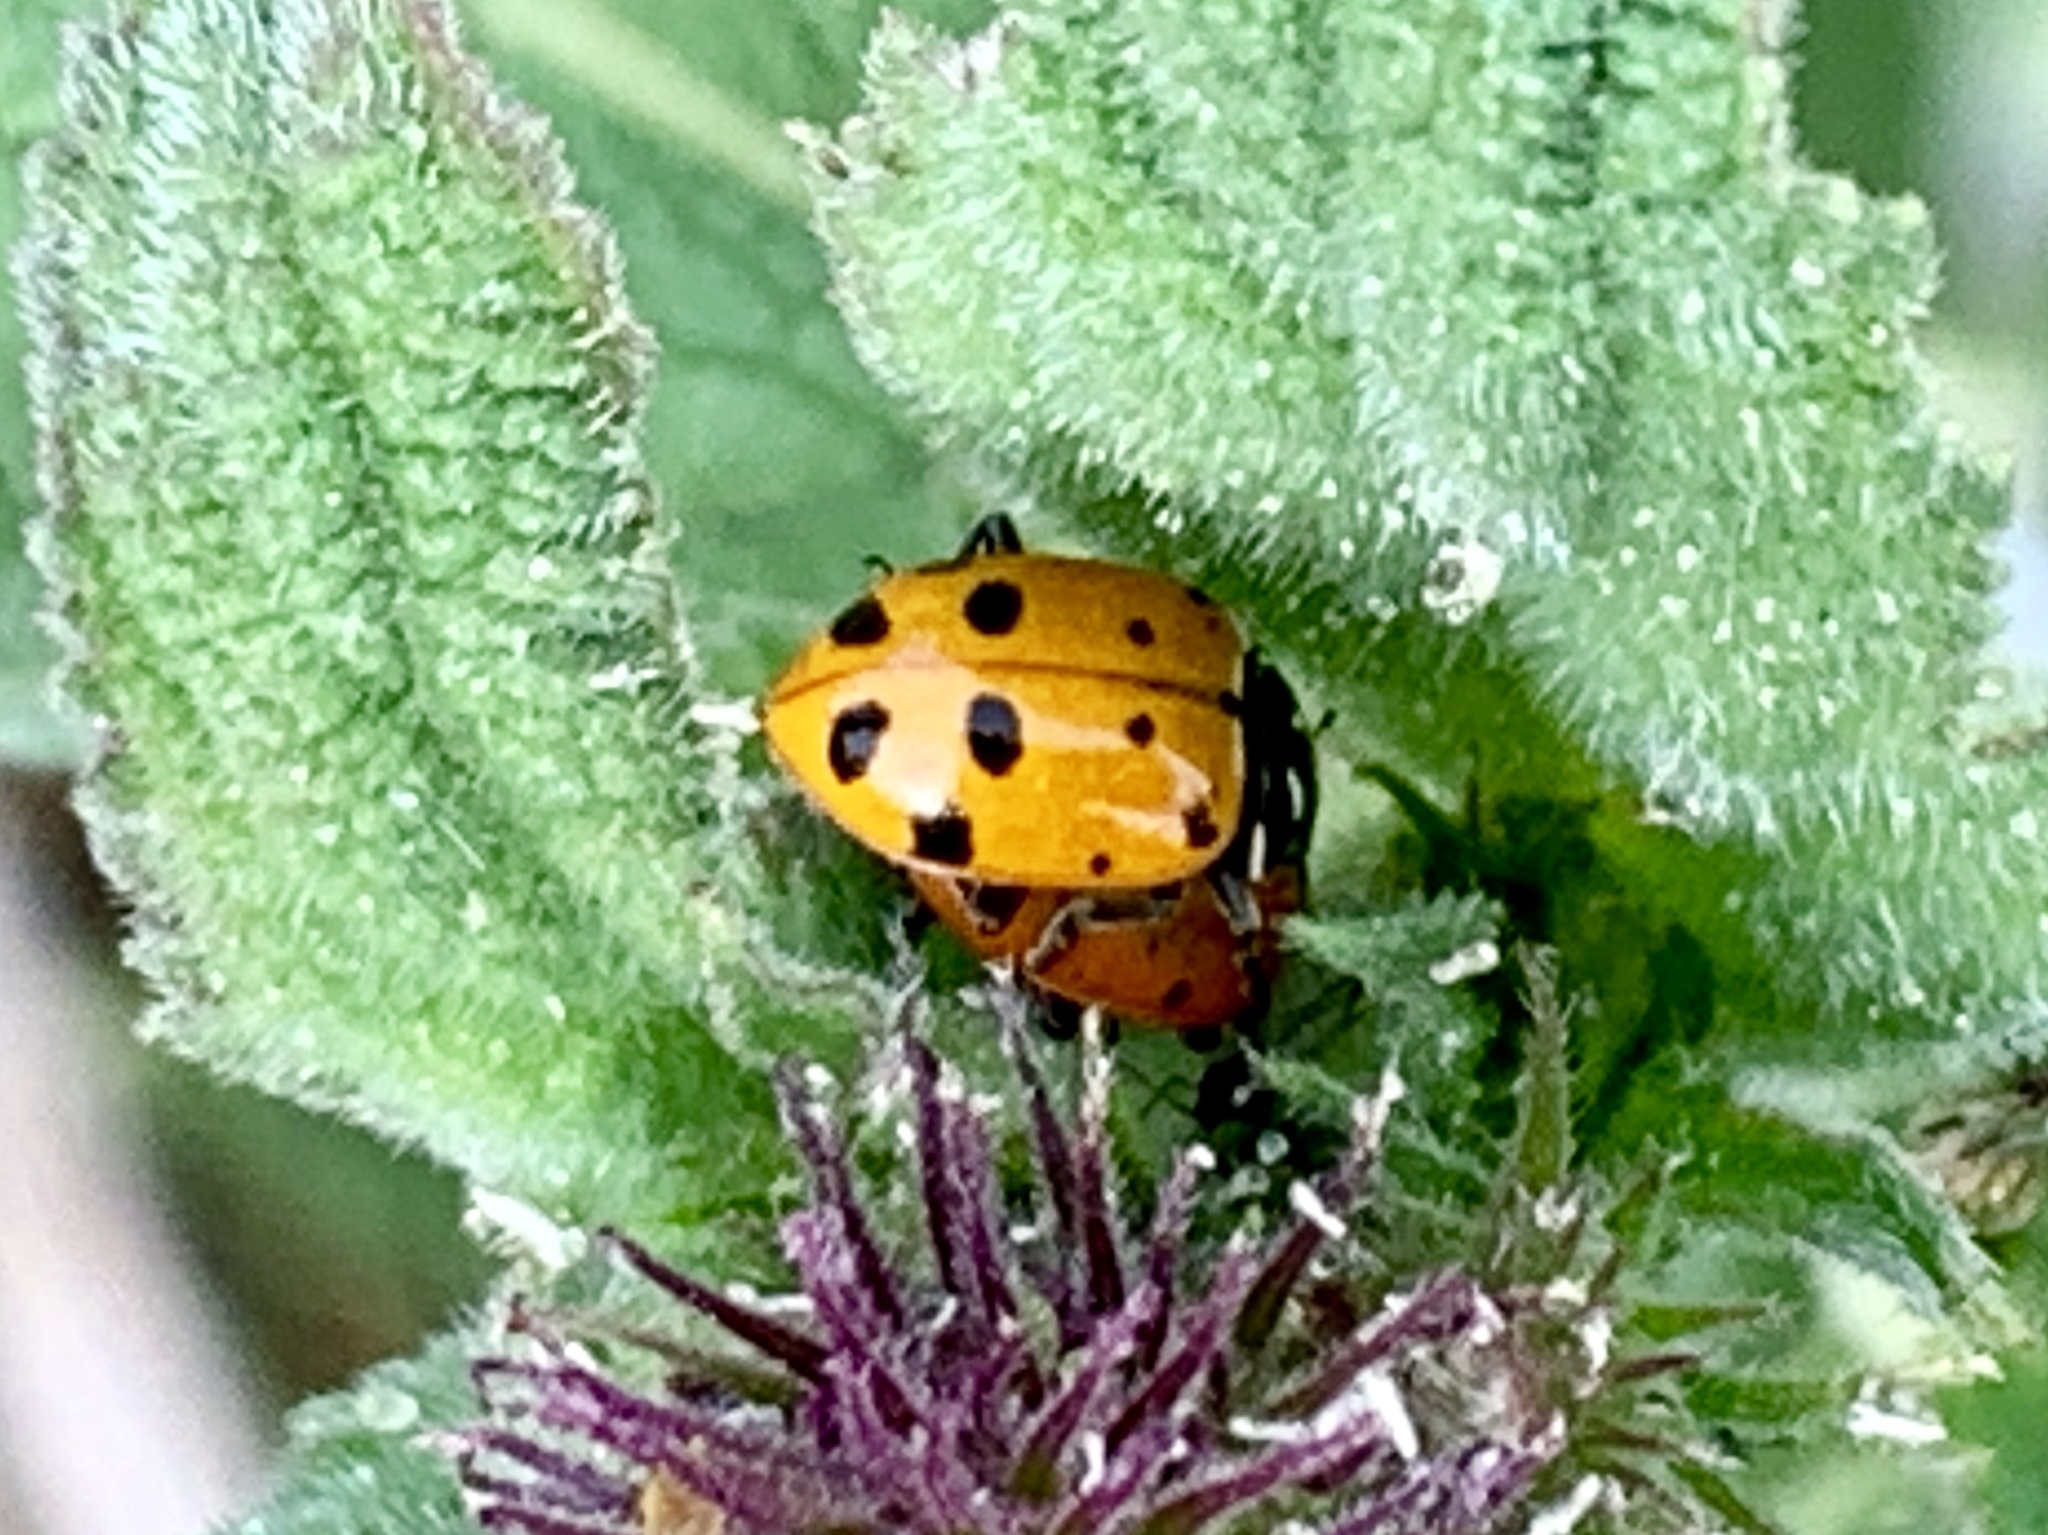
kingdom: Animalia
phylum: Arthropoda
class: Insecta
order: Coleoptera
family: Coccinellidae
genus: Hippodamia
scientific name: Hippodamia convergens
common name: Convergent lady beetle
